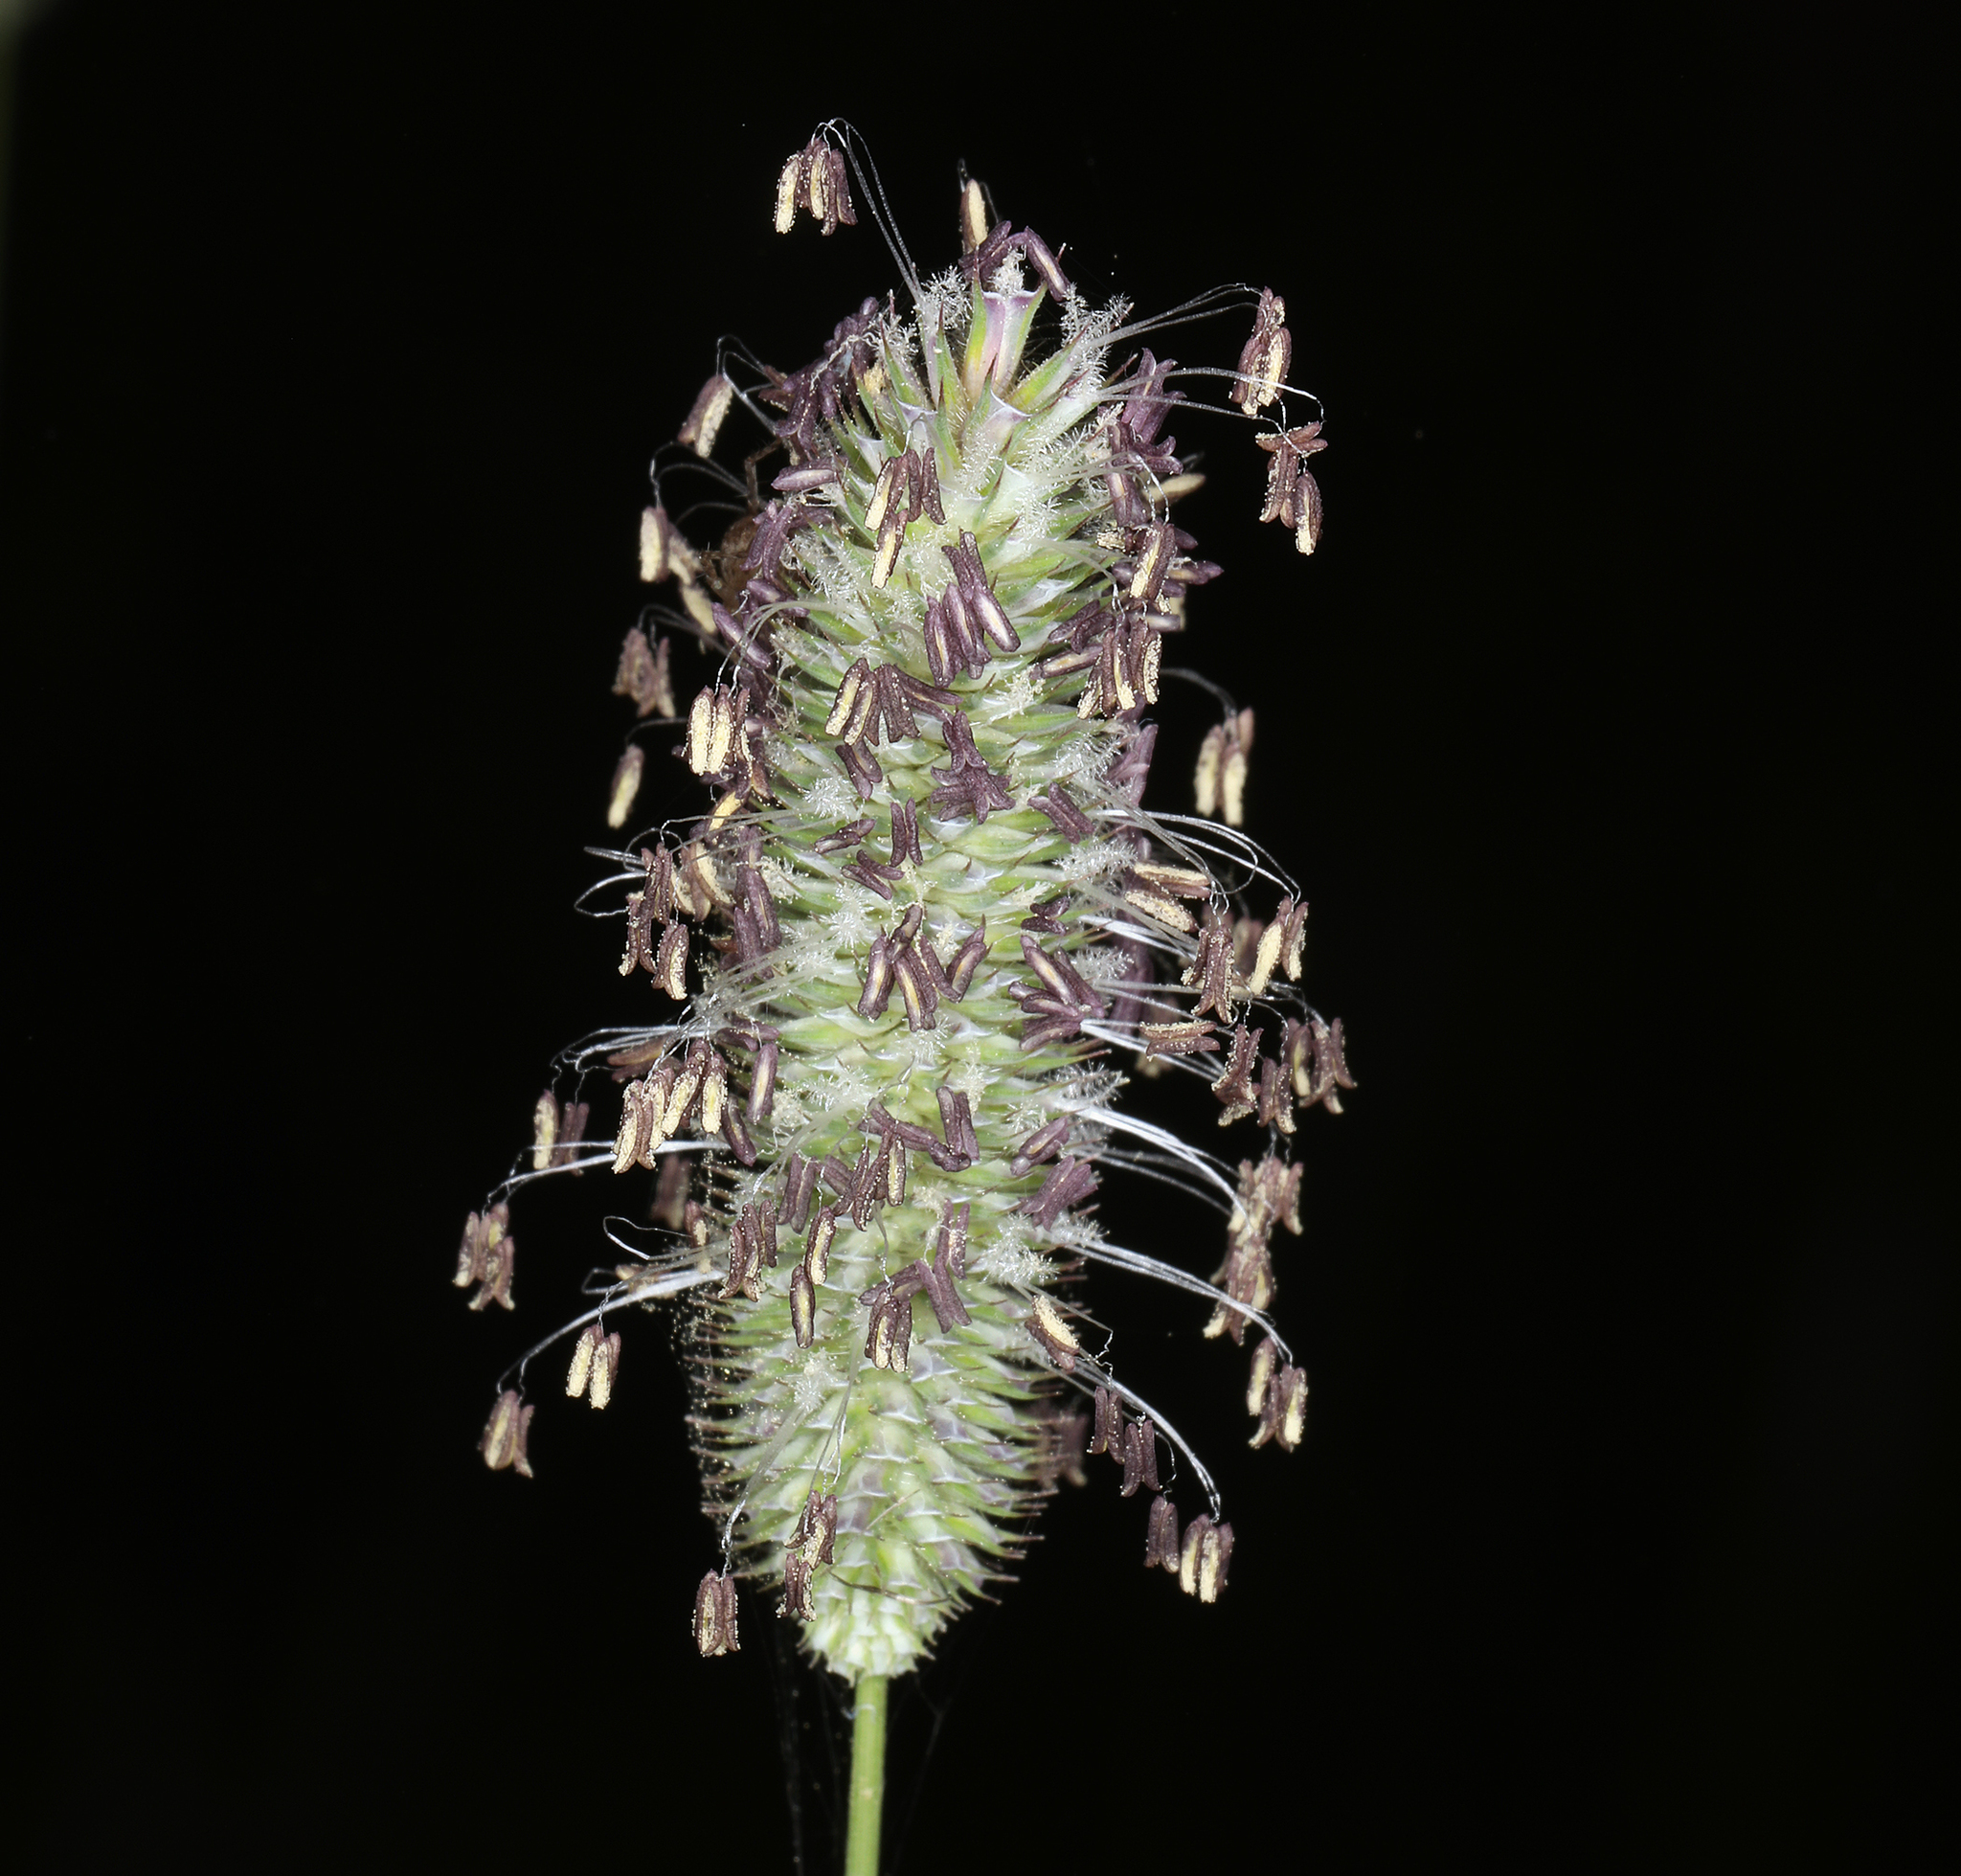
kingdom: Plantae
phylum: Tracheophyta
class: Liliopsida
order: Poales
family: Poaceae
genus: Phleum
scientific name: Phleum pratense
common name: Timothy grass
